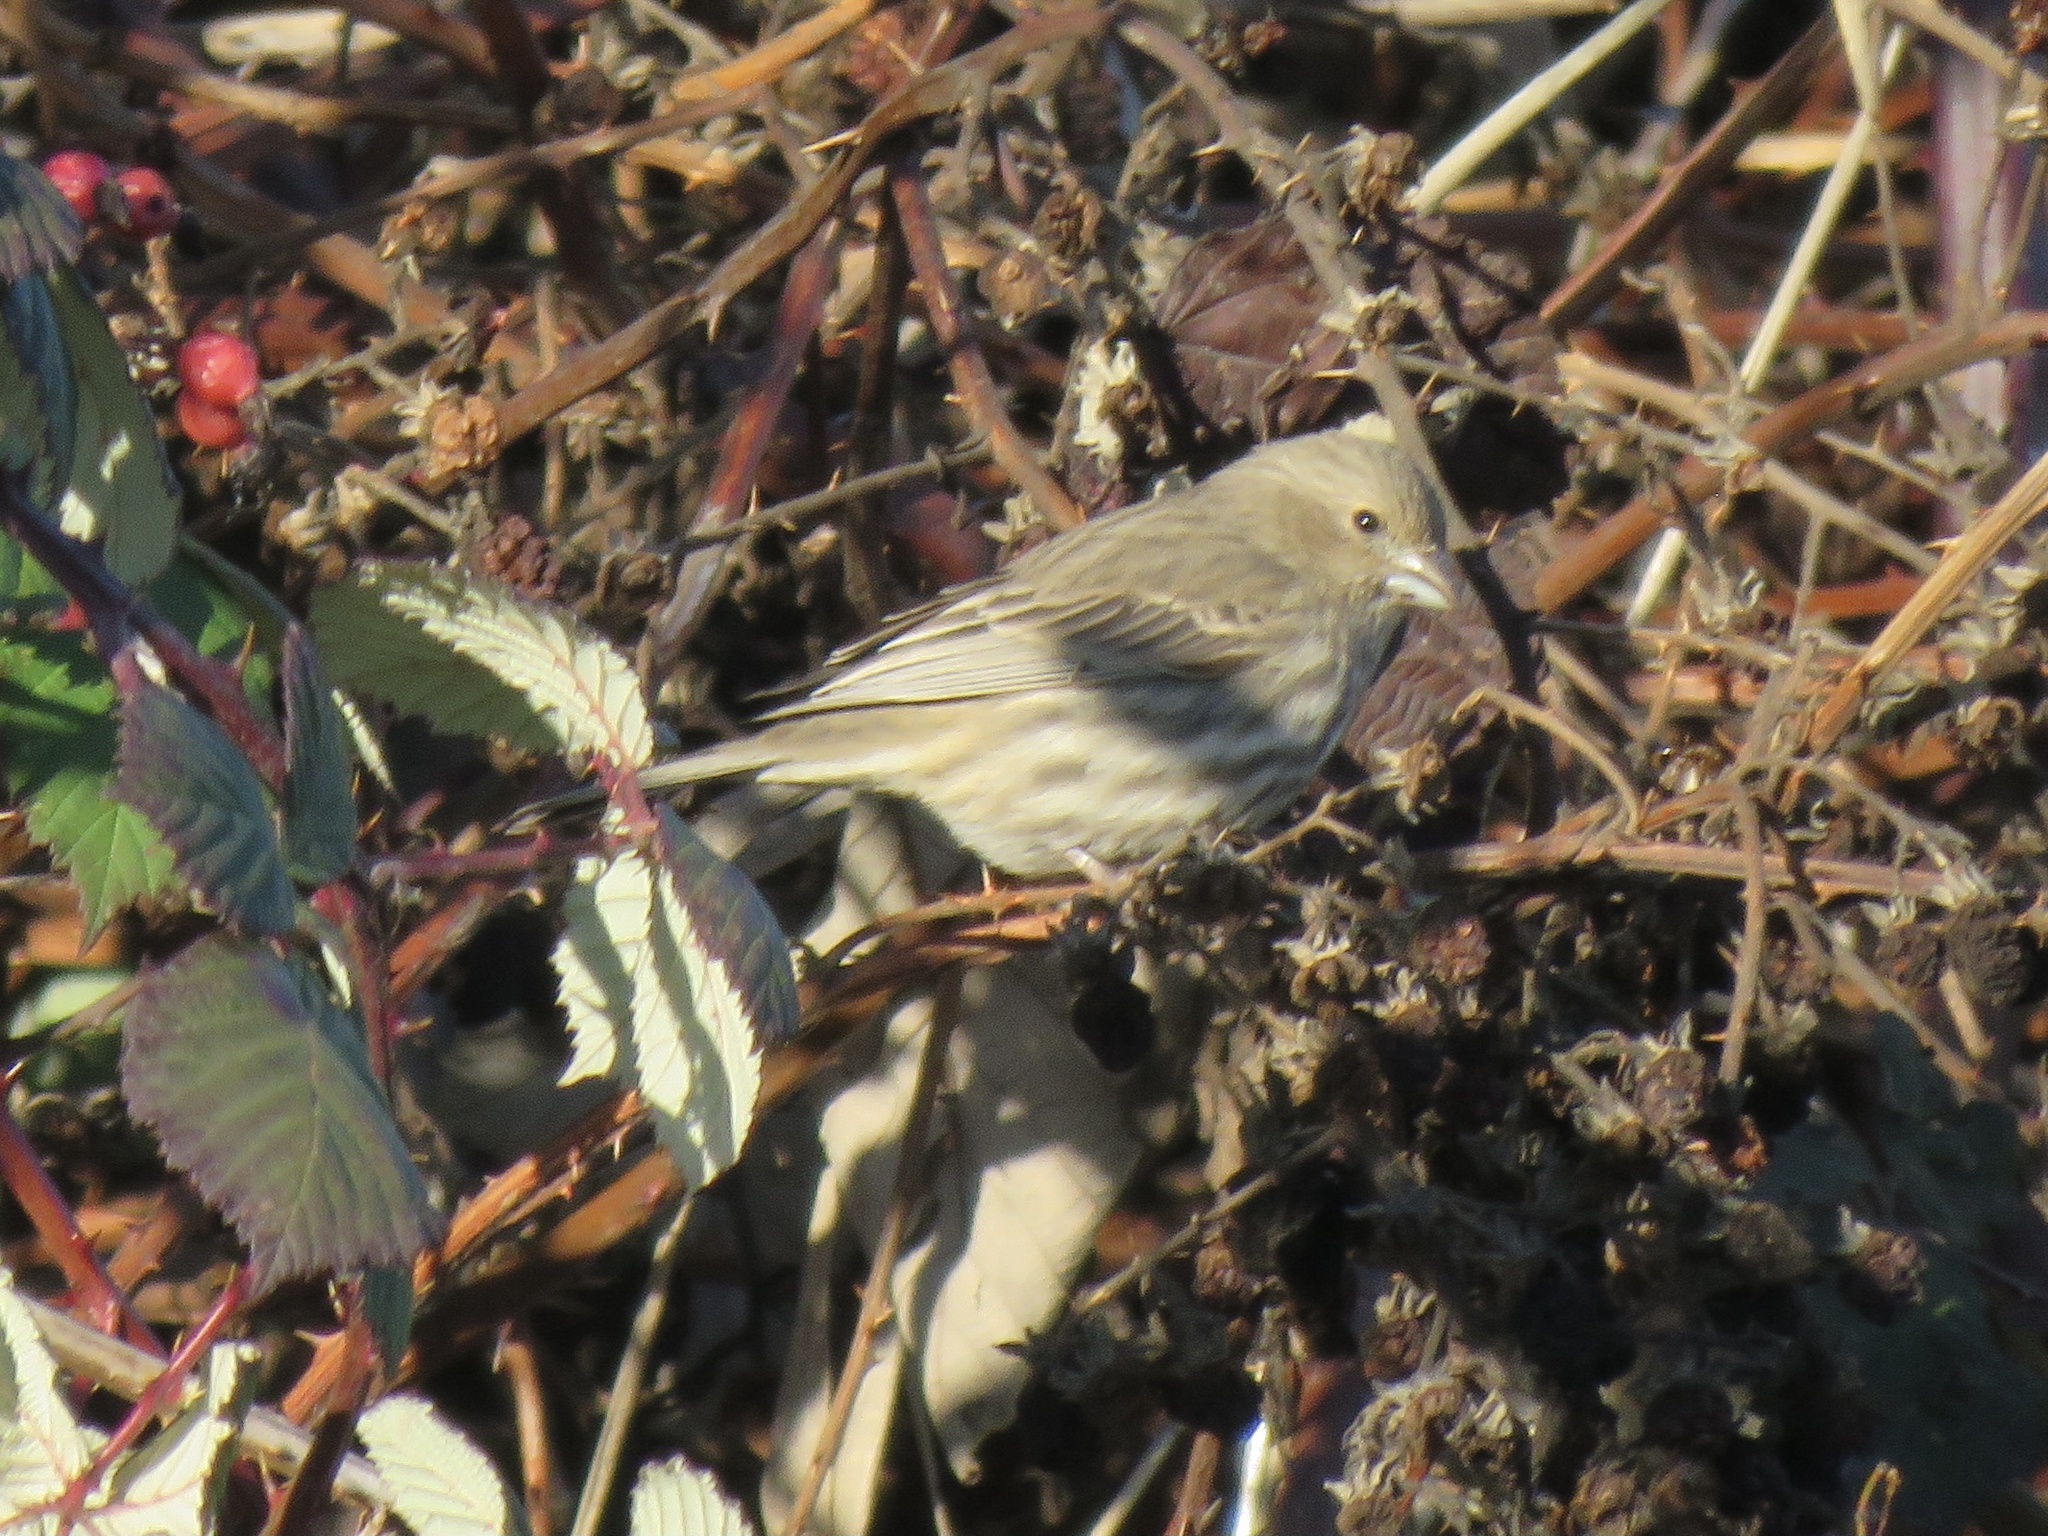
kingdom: Animalia
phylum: Chordata
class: Aves
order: Passeriformes
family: Fringillidae
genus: Haemorhous
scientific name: Haemorhous mexicanus
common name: House finch
